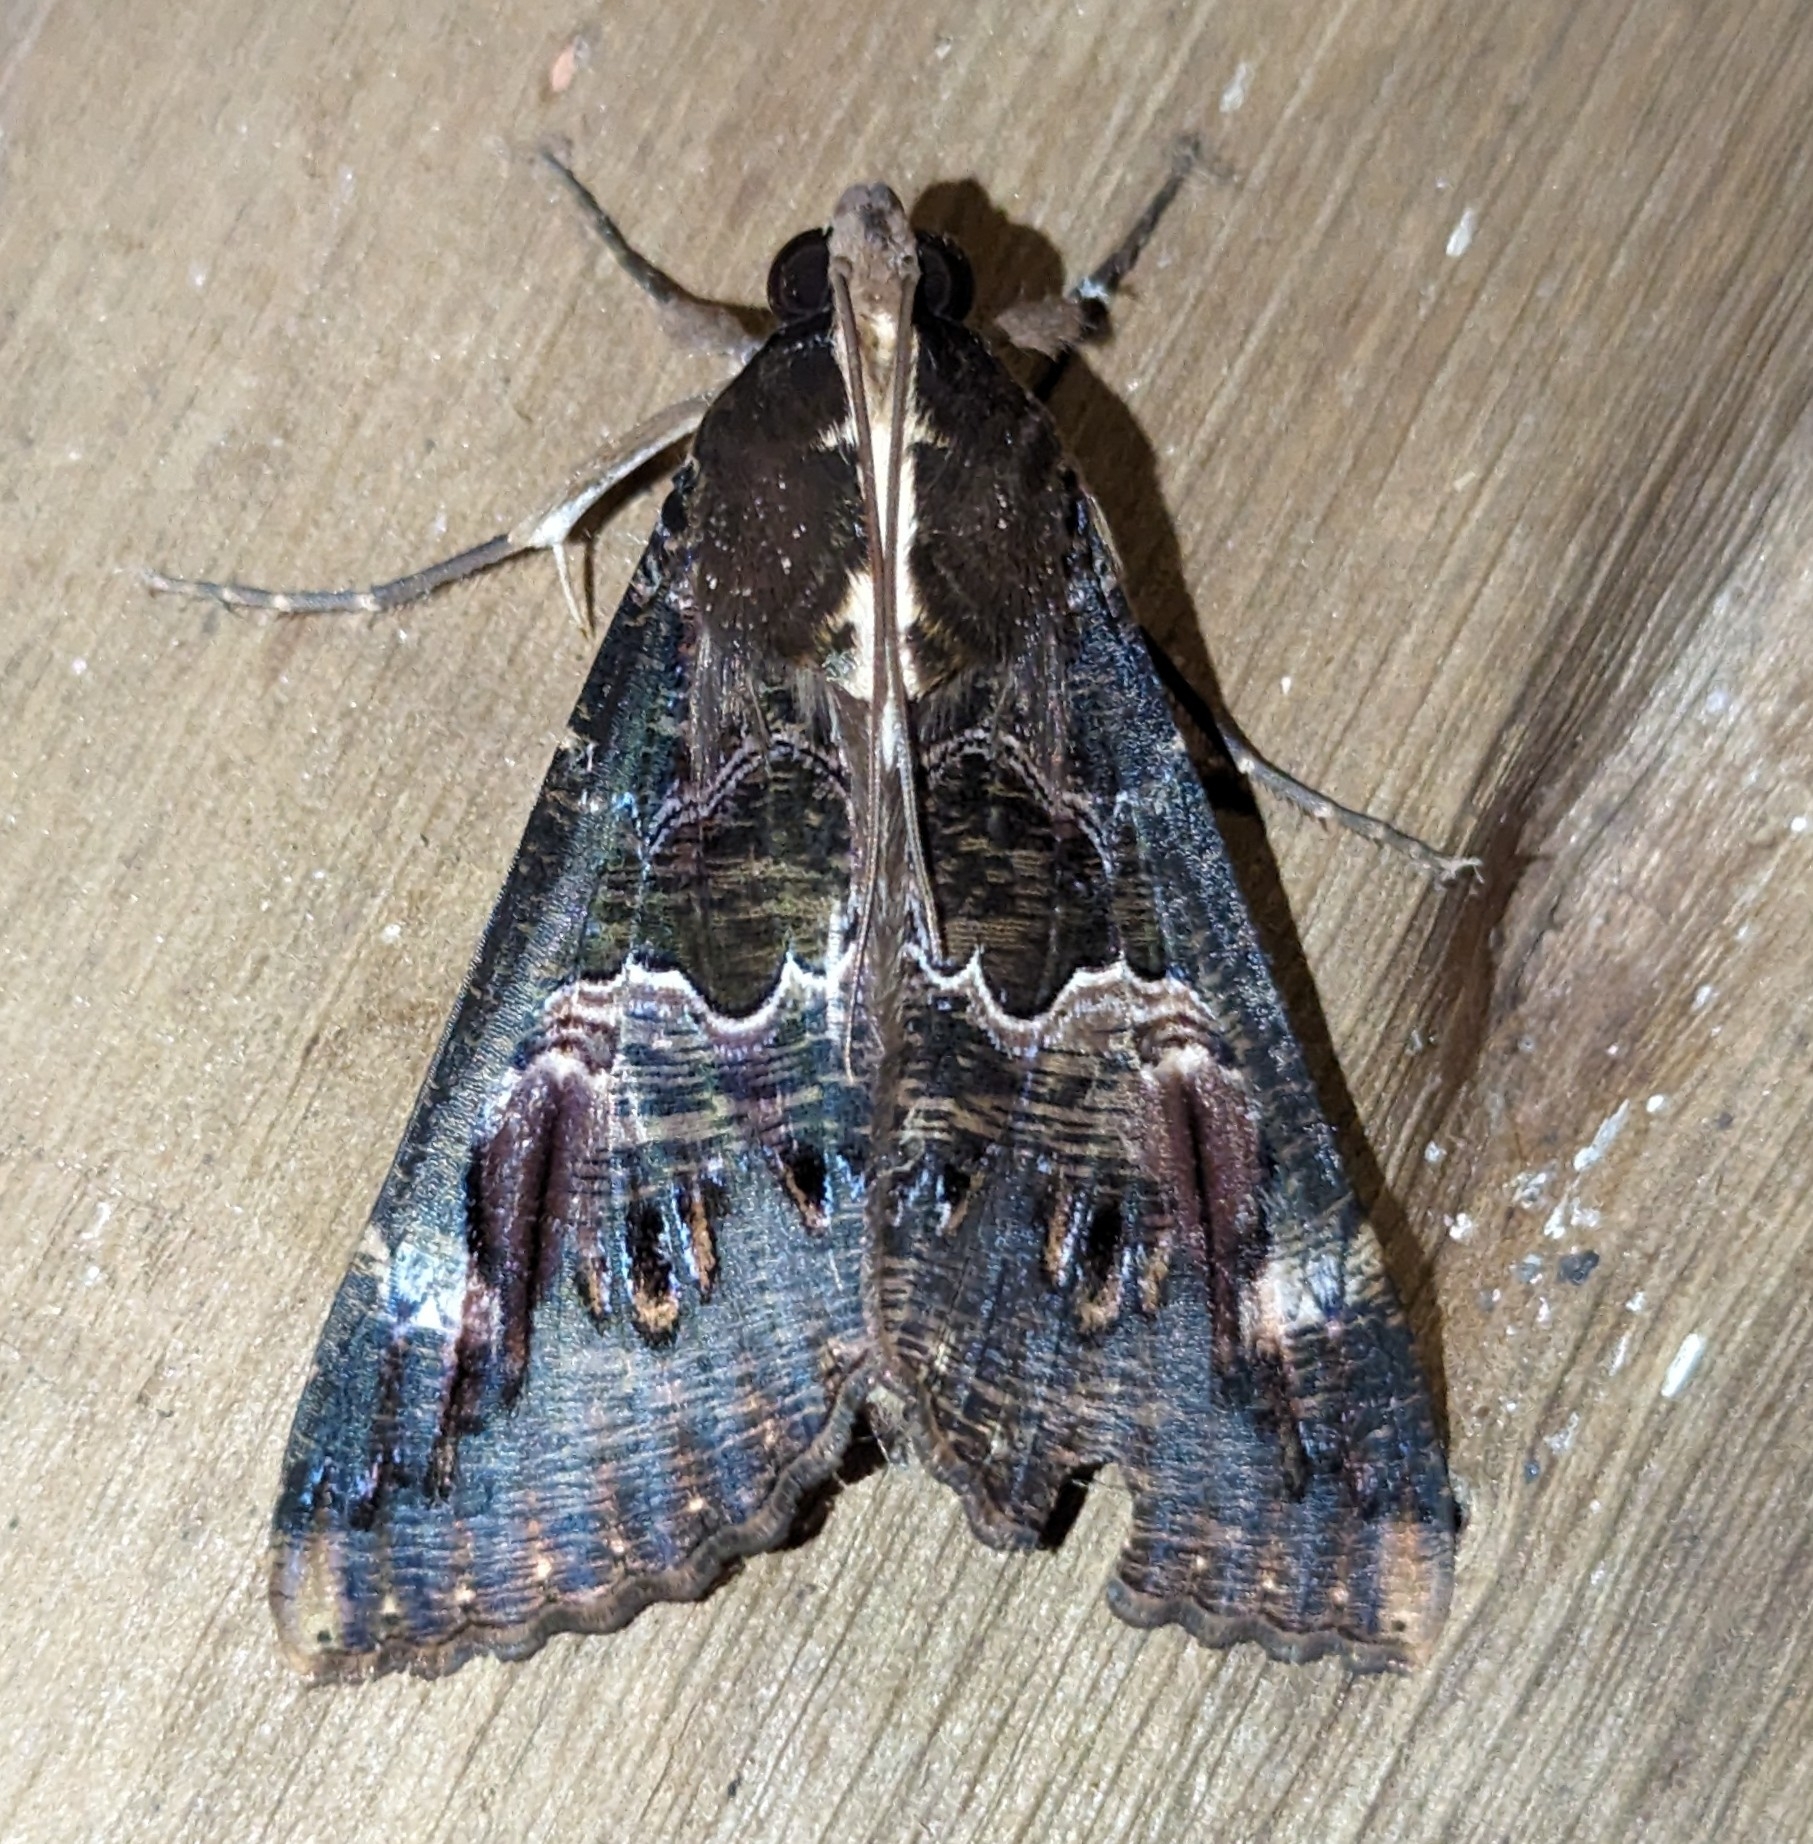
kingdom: Animalia
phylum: Arthropoda
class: Insecta
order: Lepidoptera
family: Erebidae
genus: Sphingomorpha
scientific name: Sphingomorpha chlorea
